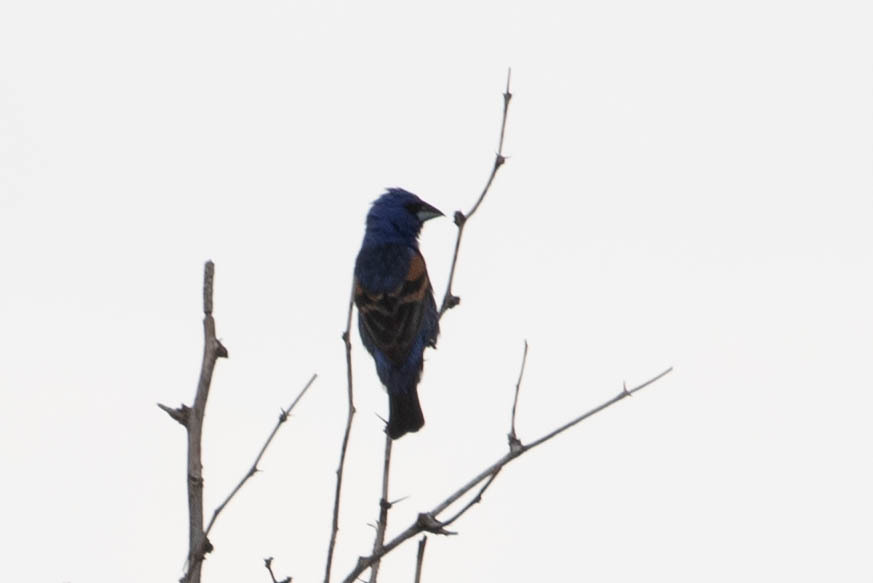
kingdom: Animalia
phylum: Chordata
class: Aves
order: Passeriformes
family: Cardinalidae
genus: Passerina
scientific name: Passerina caerulea
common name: Blue grosbeak
